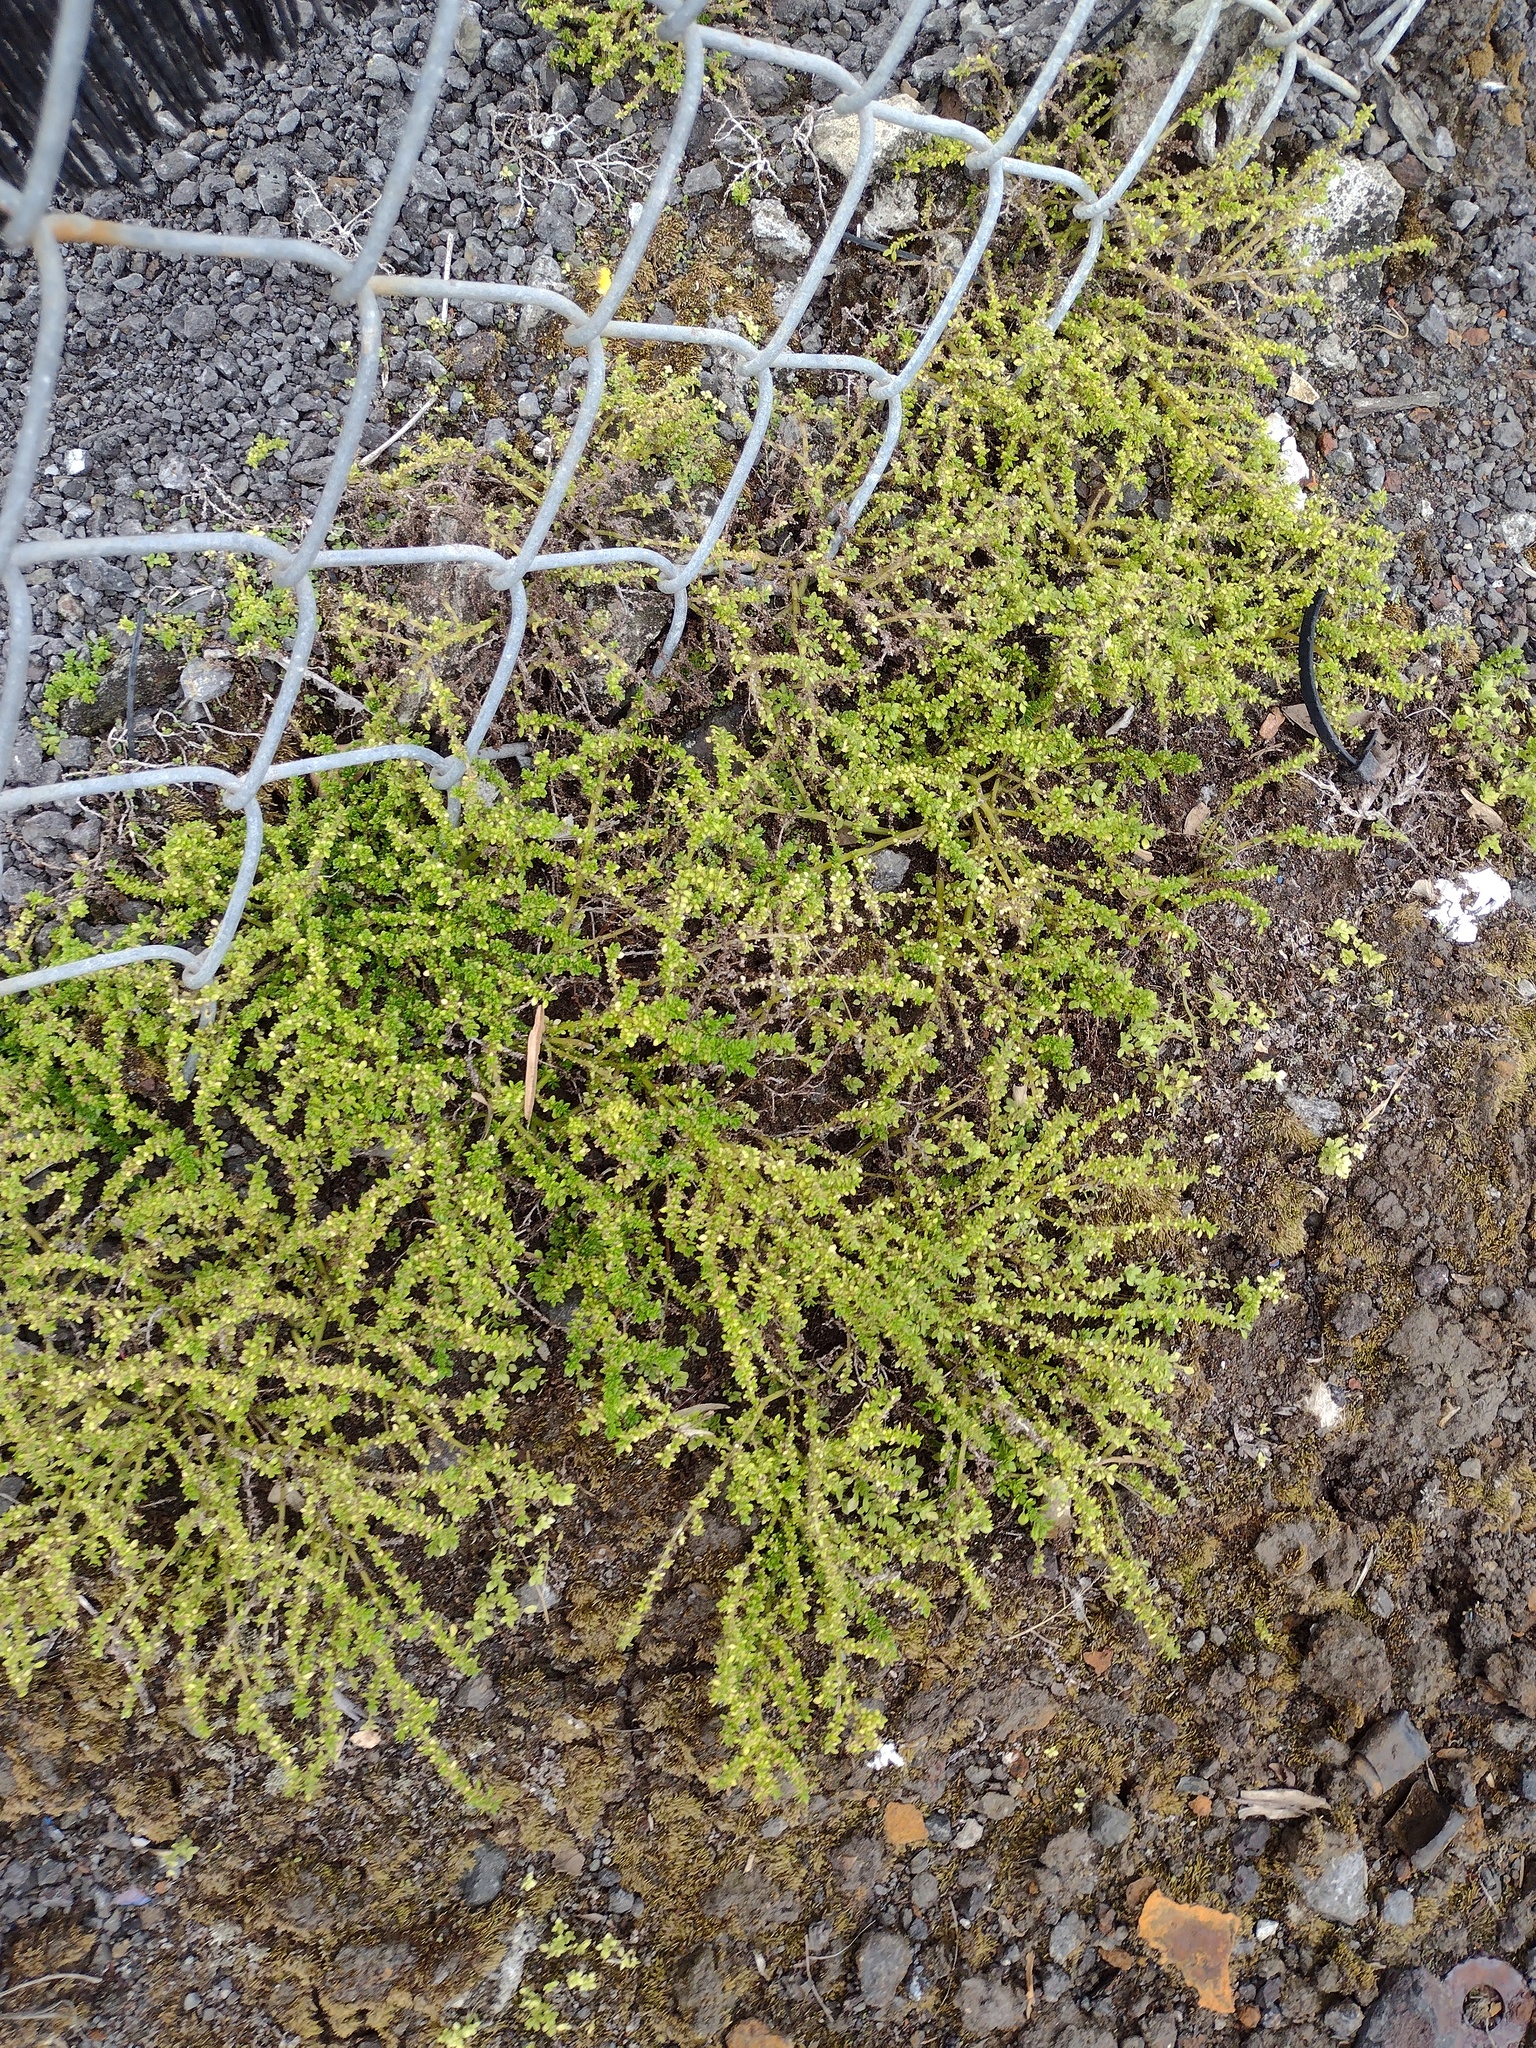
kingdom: Plantae
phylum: Tracheophyta
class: Magnoliopsida
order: Rosales
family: Urticaceae
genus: Pilea
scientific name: Pilea microphylla
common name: Artillery-plant
